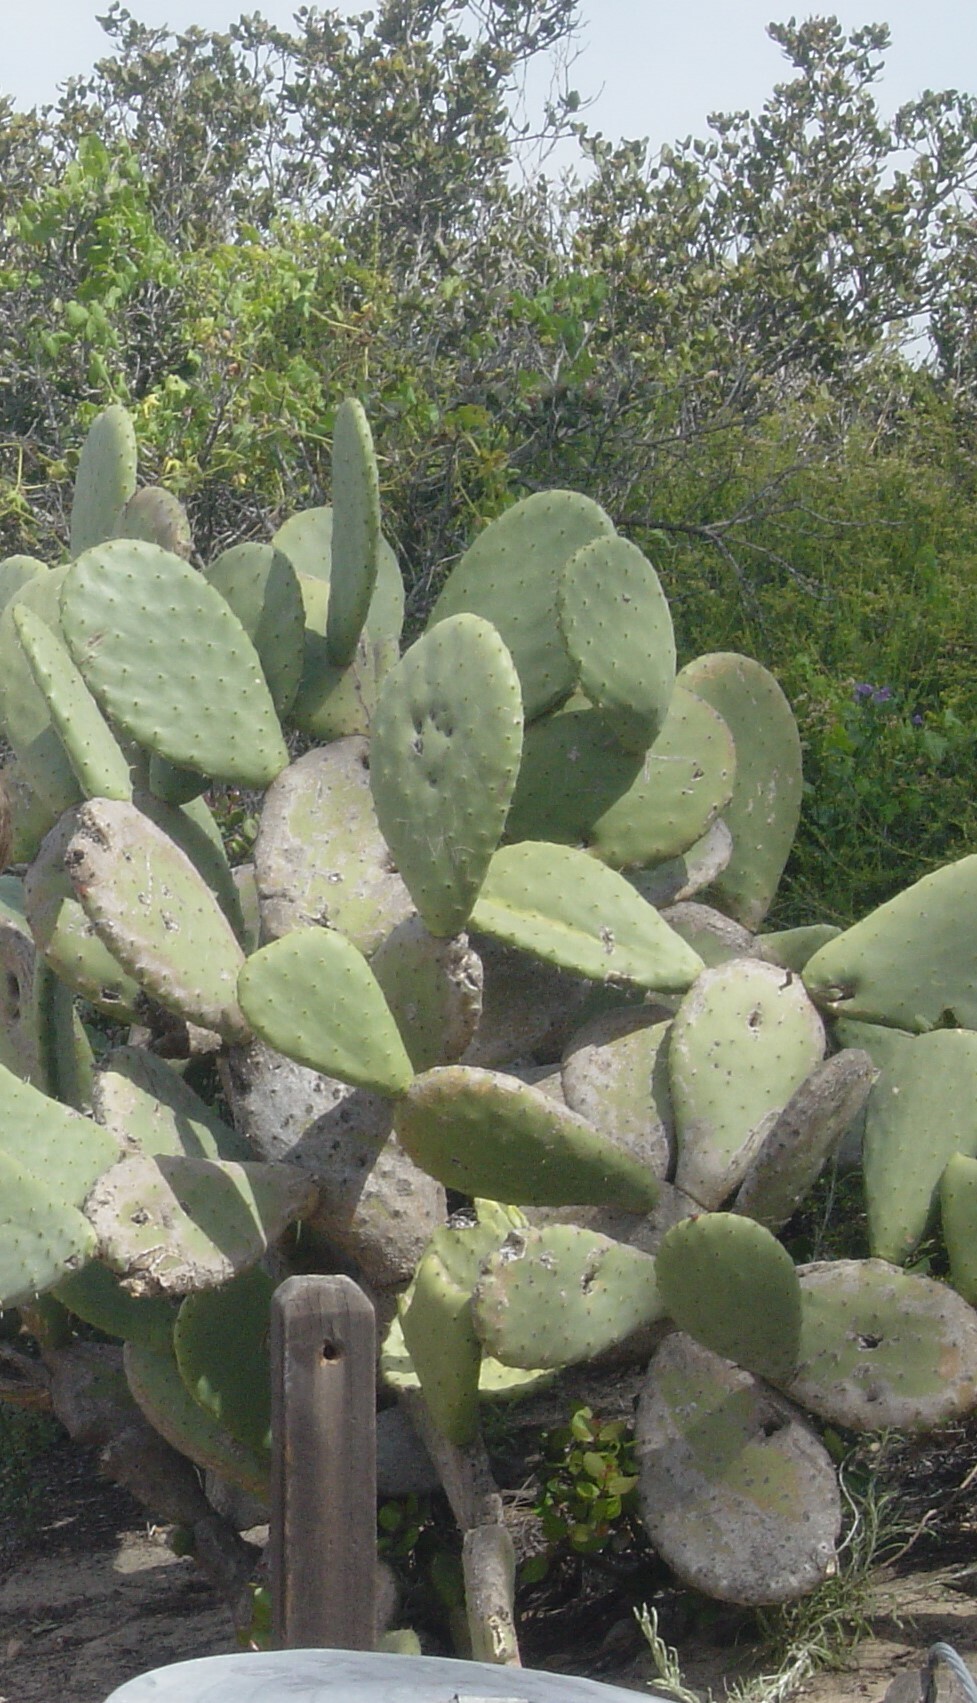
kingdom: Plantae
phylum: Tracheophyta
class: Magnoliopsida
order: Caryophyllales
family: Cactaceae
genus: Opuntia
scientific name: Opuntia ficus-indica
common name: Barbary fig
